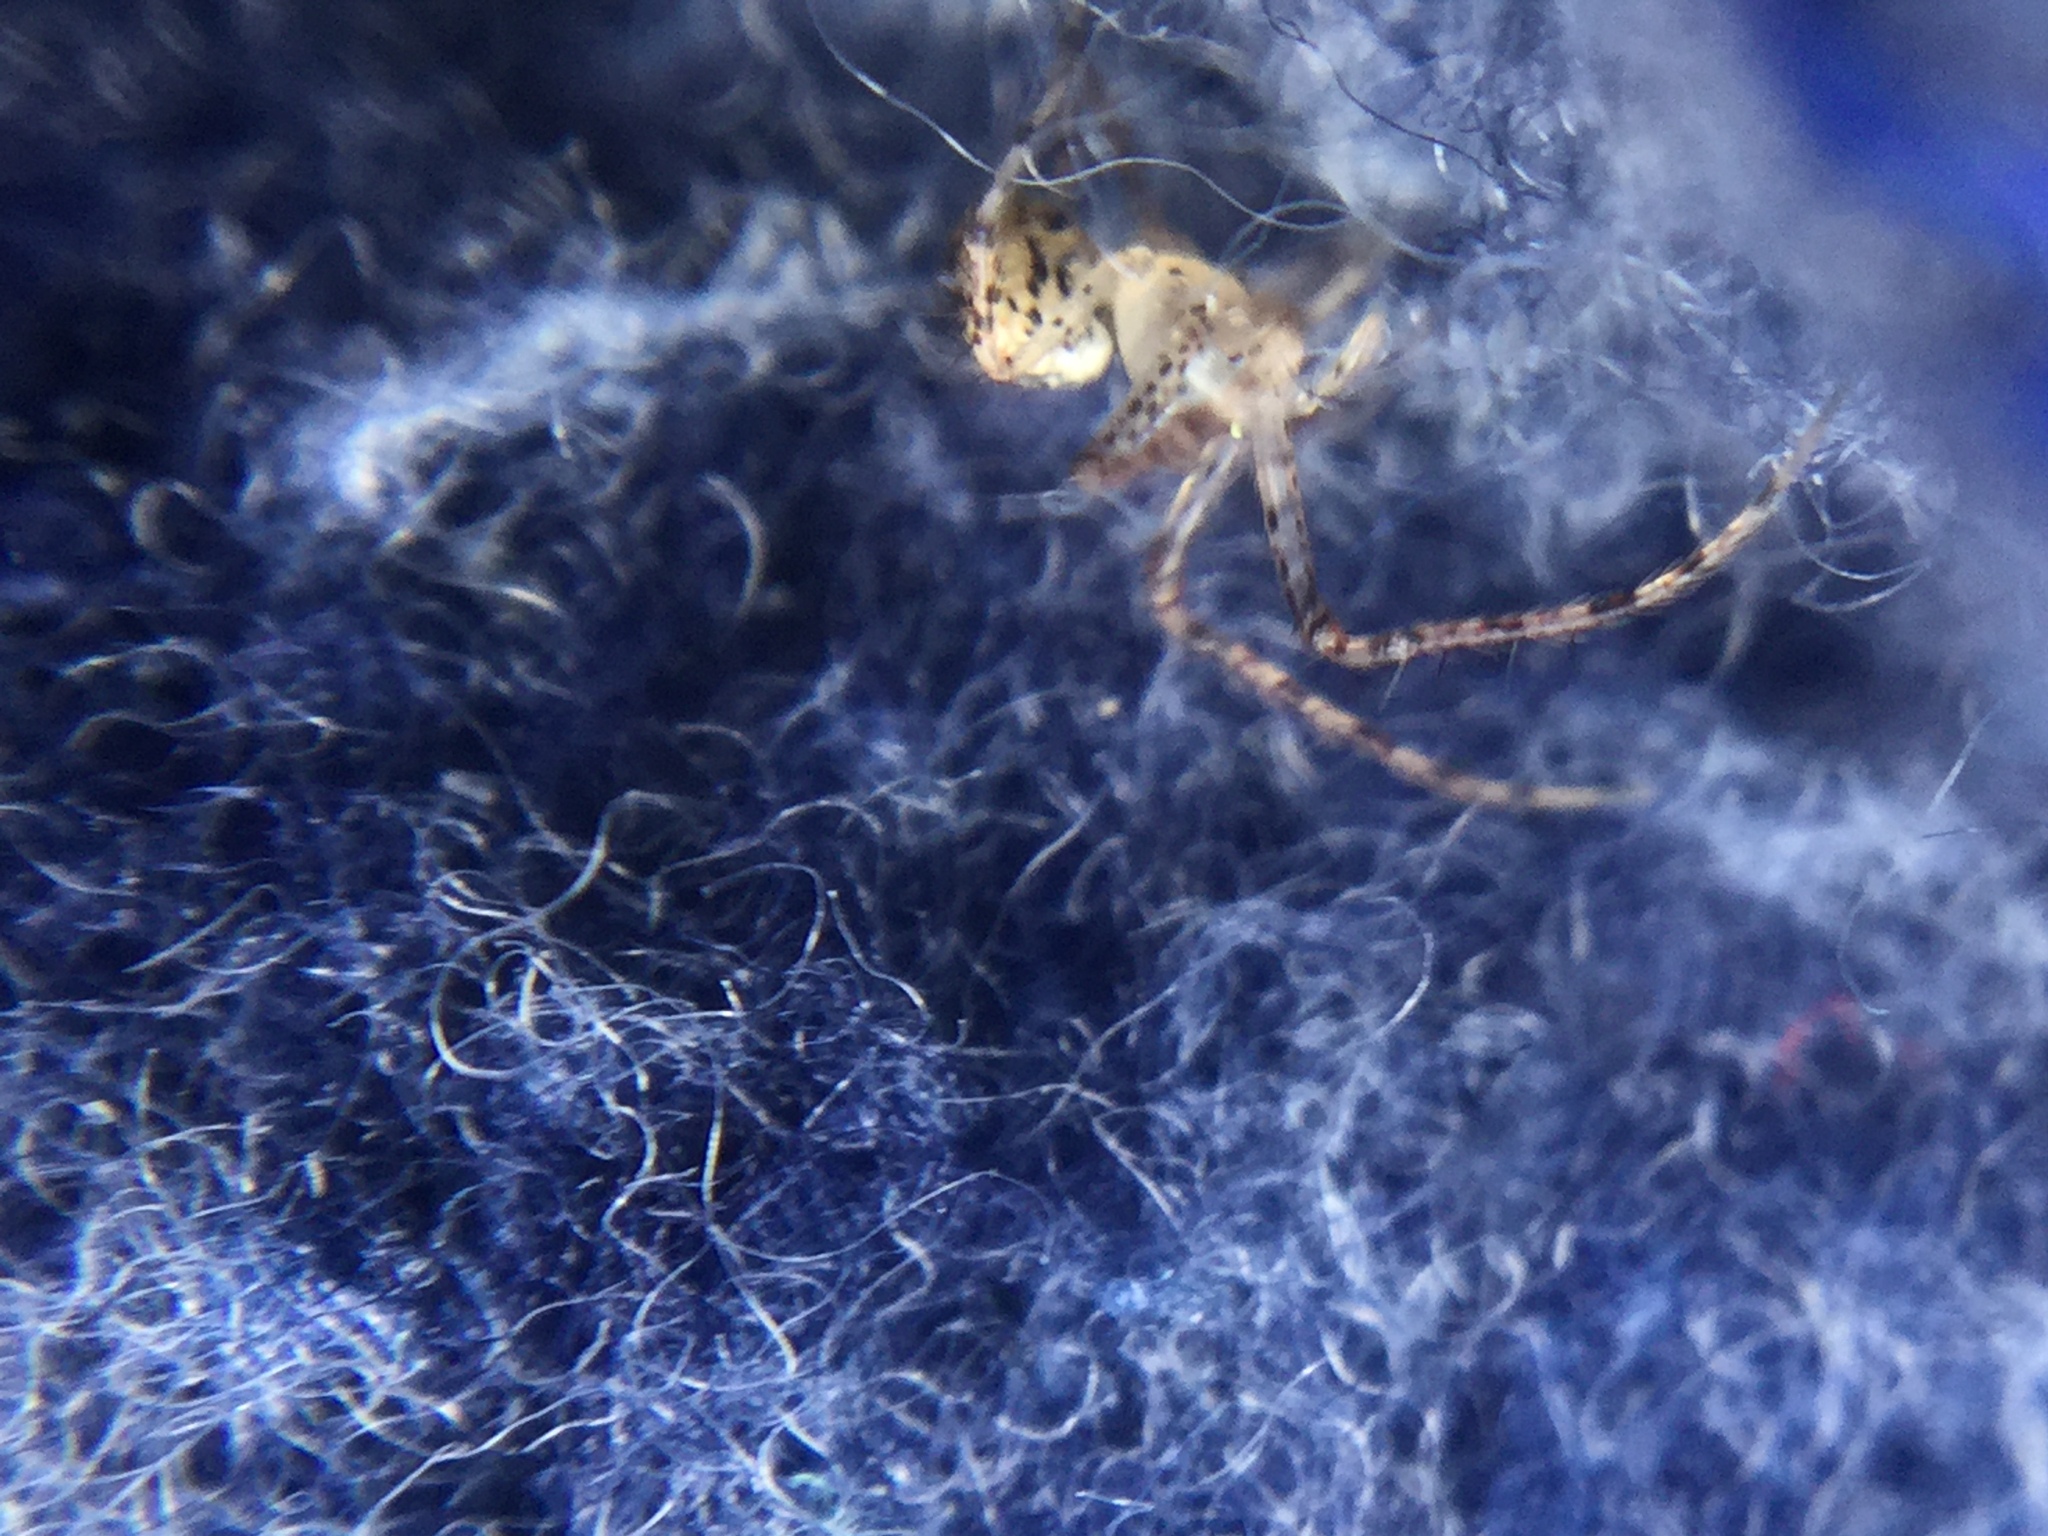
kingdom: Animalia
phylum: Arthropoda
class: Arachnida
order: Araneae
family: Mimetidae
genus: Mimetus
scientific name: Mimetus puritanus
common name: Common pirate spider
